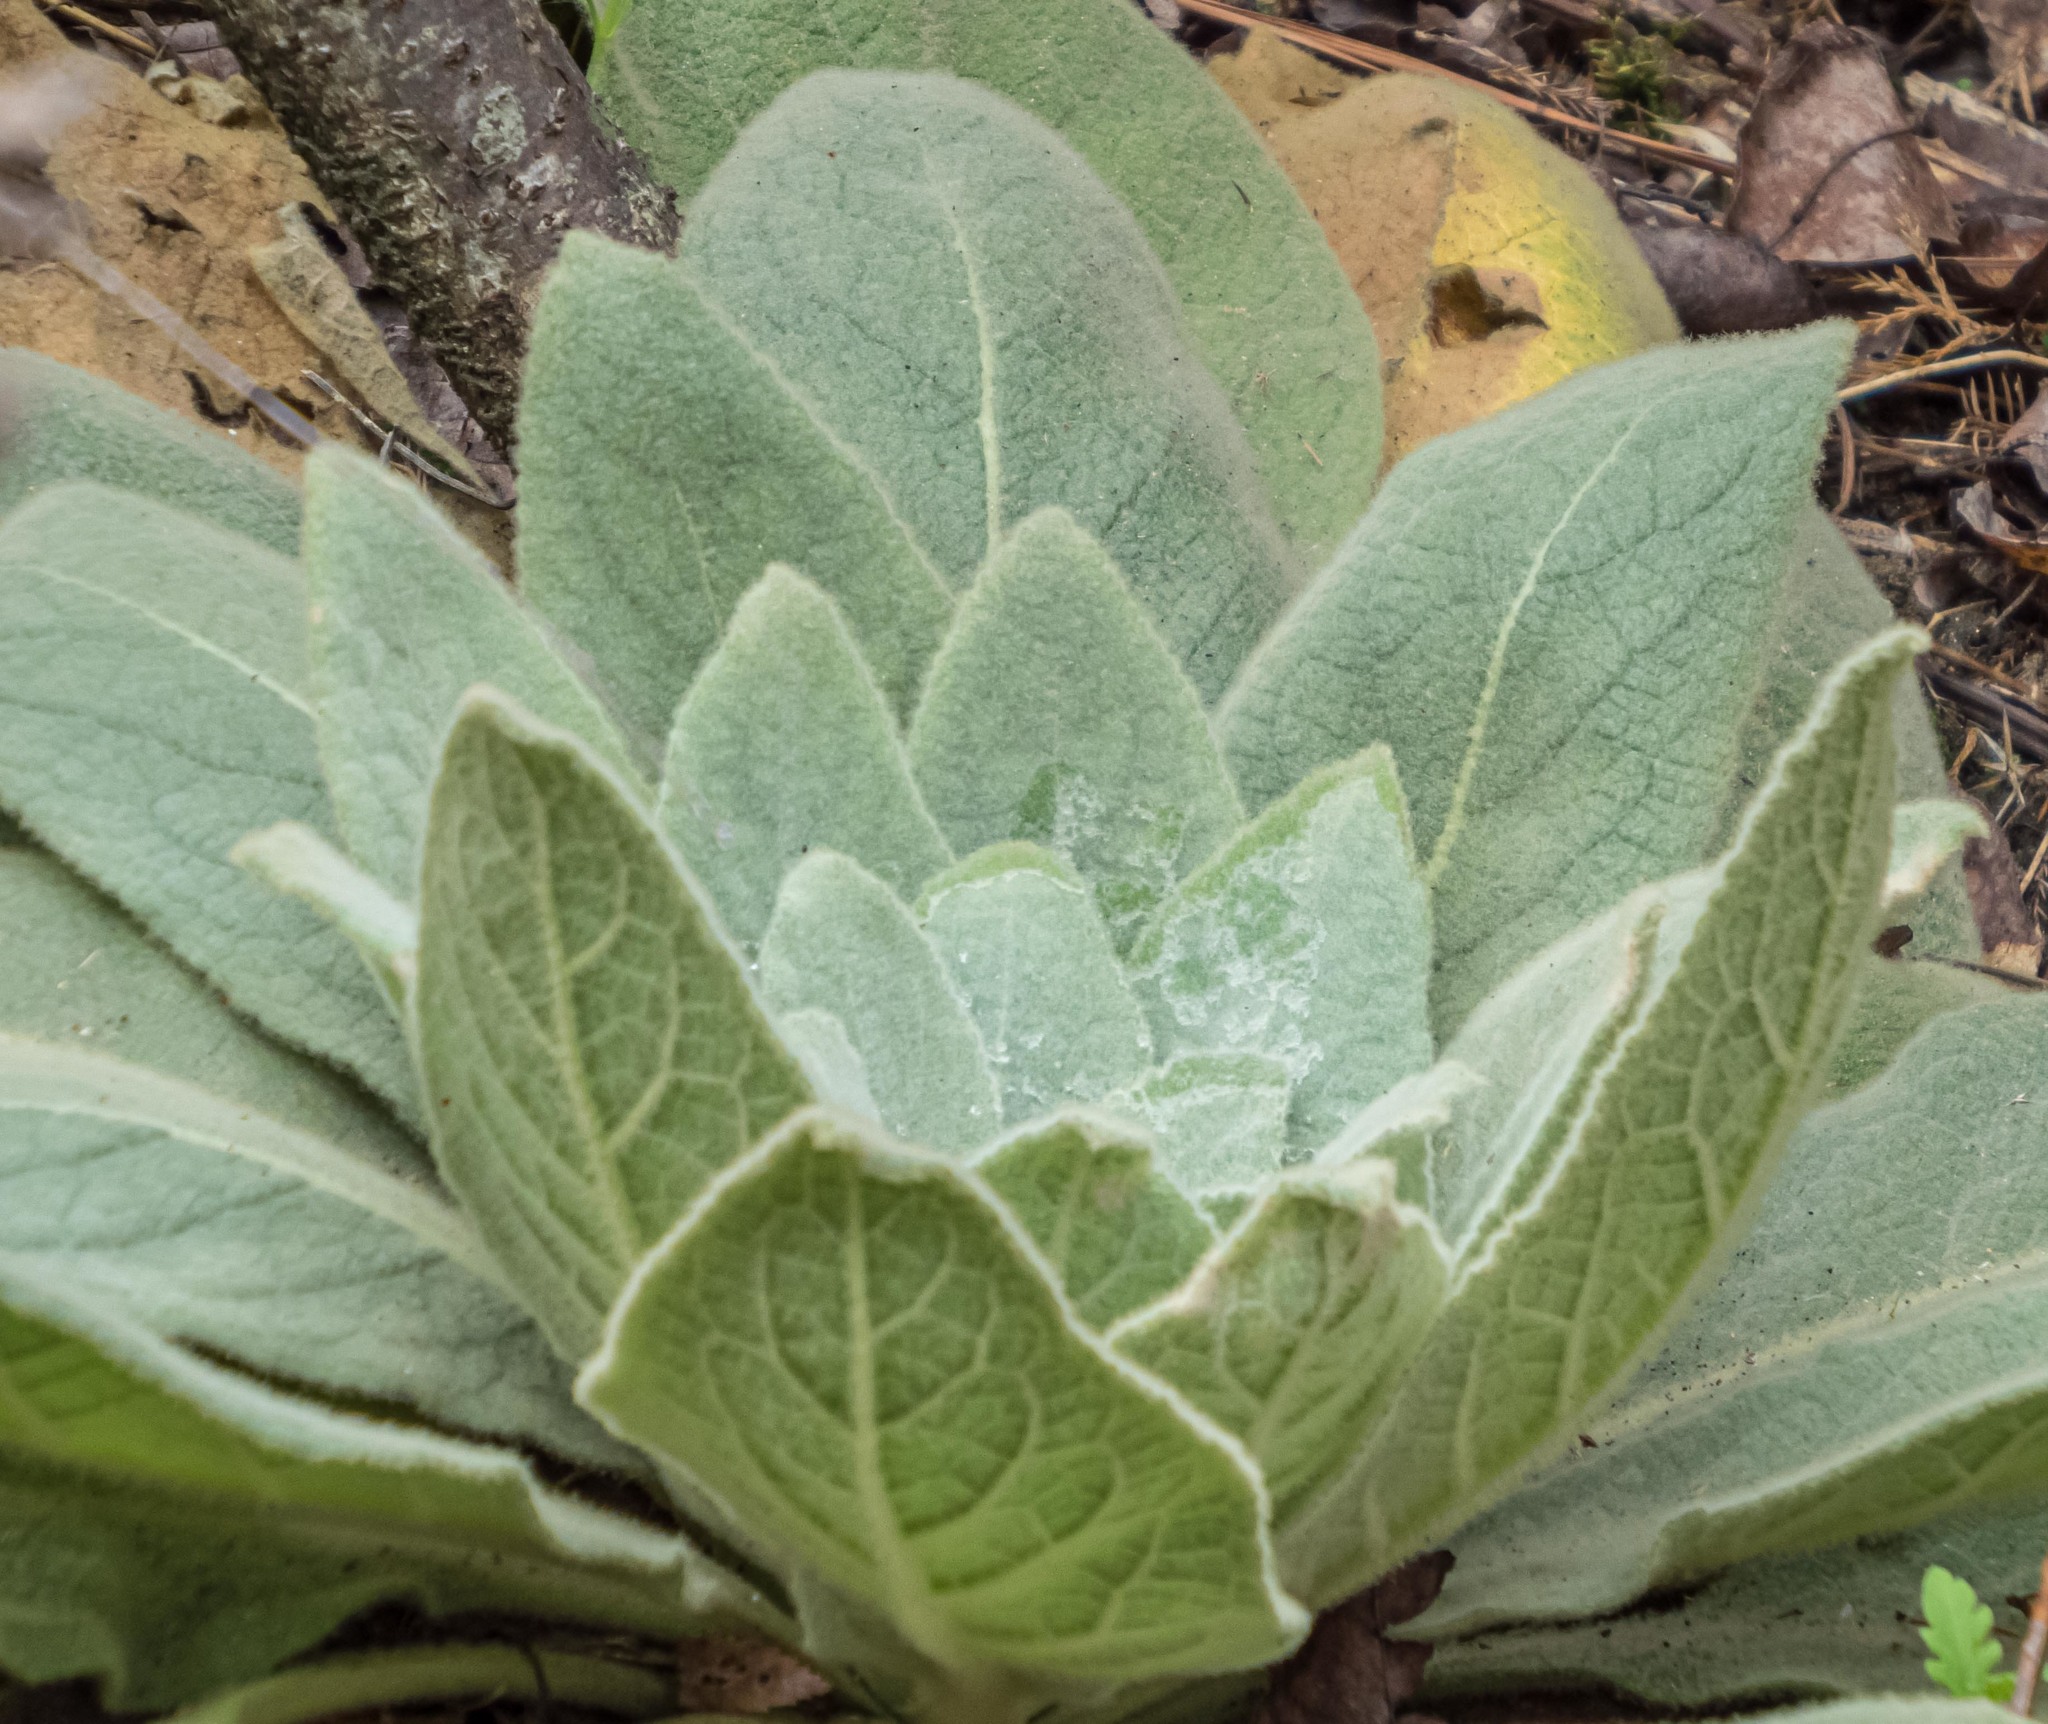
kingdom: Plantae
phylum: Tracheophyta
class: Magnoliopsida
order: Lamiales
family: Scrophulariaceae
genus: Verbascum
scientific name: Verbascum thapsus
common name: Common mullein
